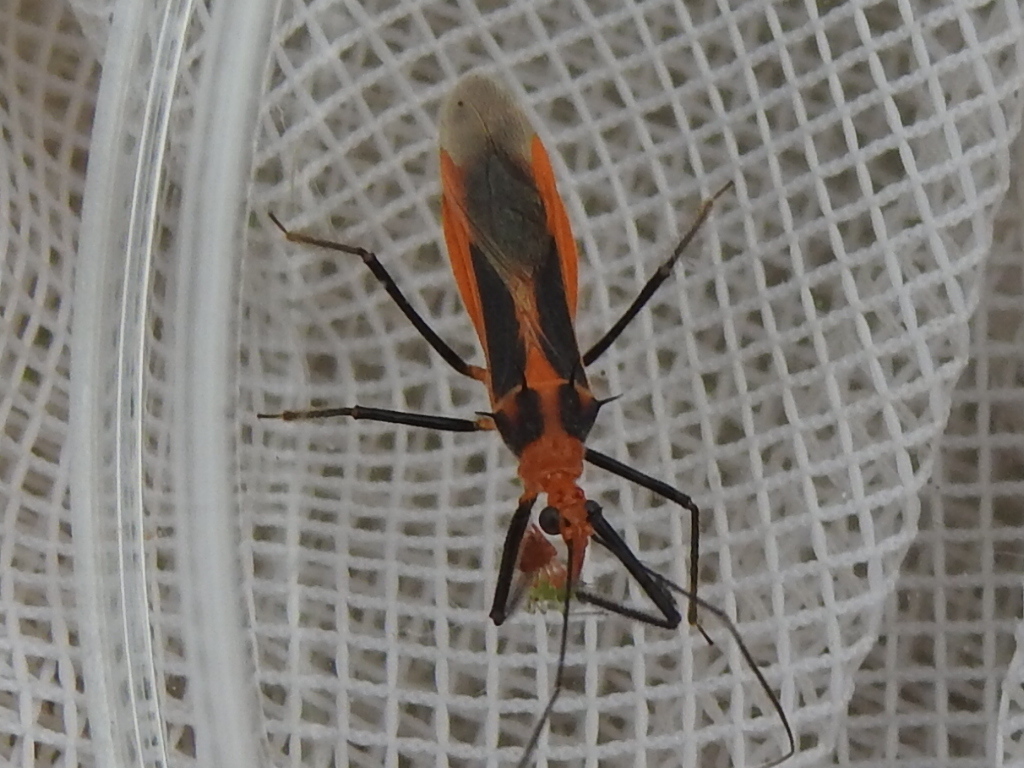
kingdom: Animalia
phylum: Arthropoda
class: Insecta
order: Hemiptera
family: Reduviidae
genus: Repipta
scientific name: Repipta taurus
